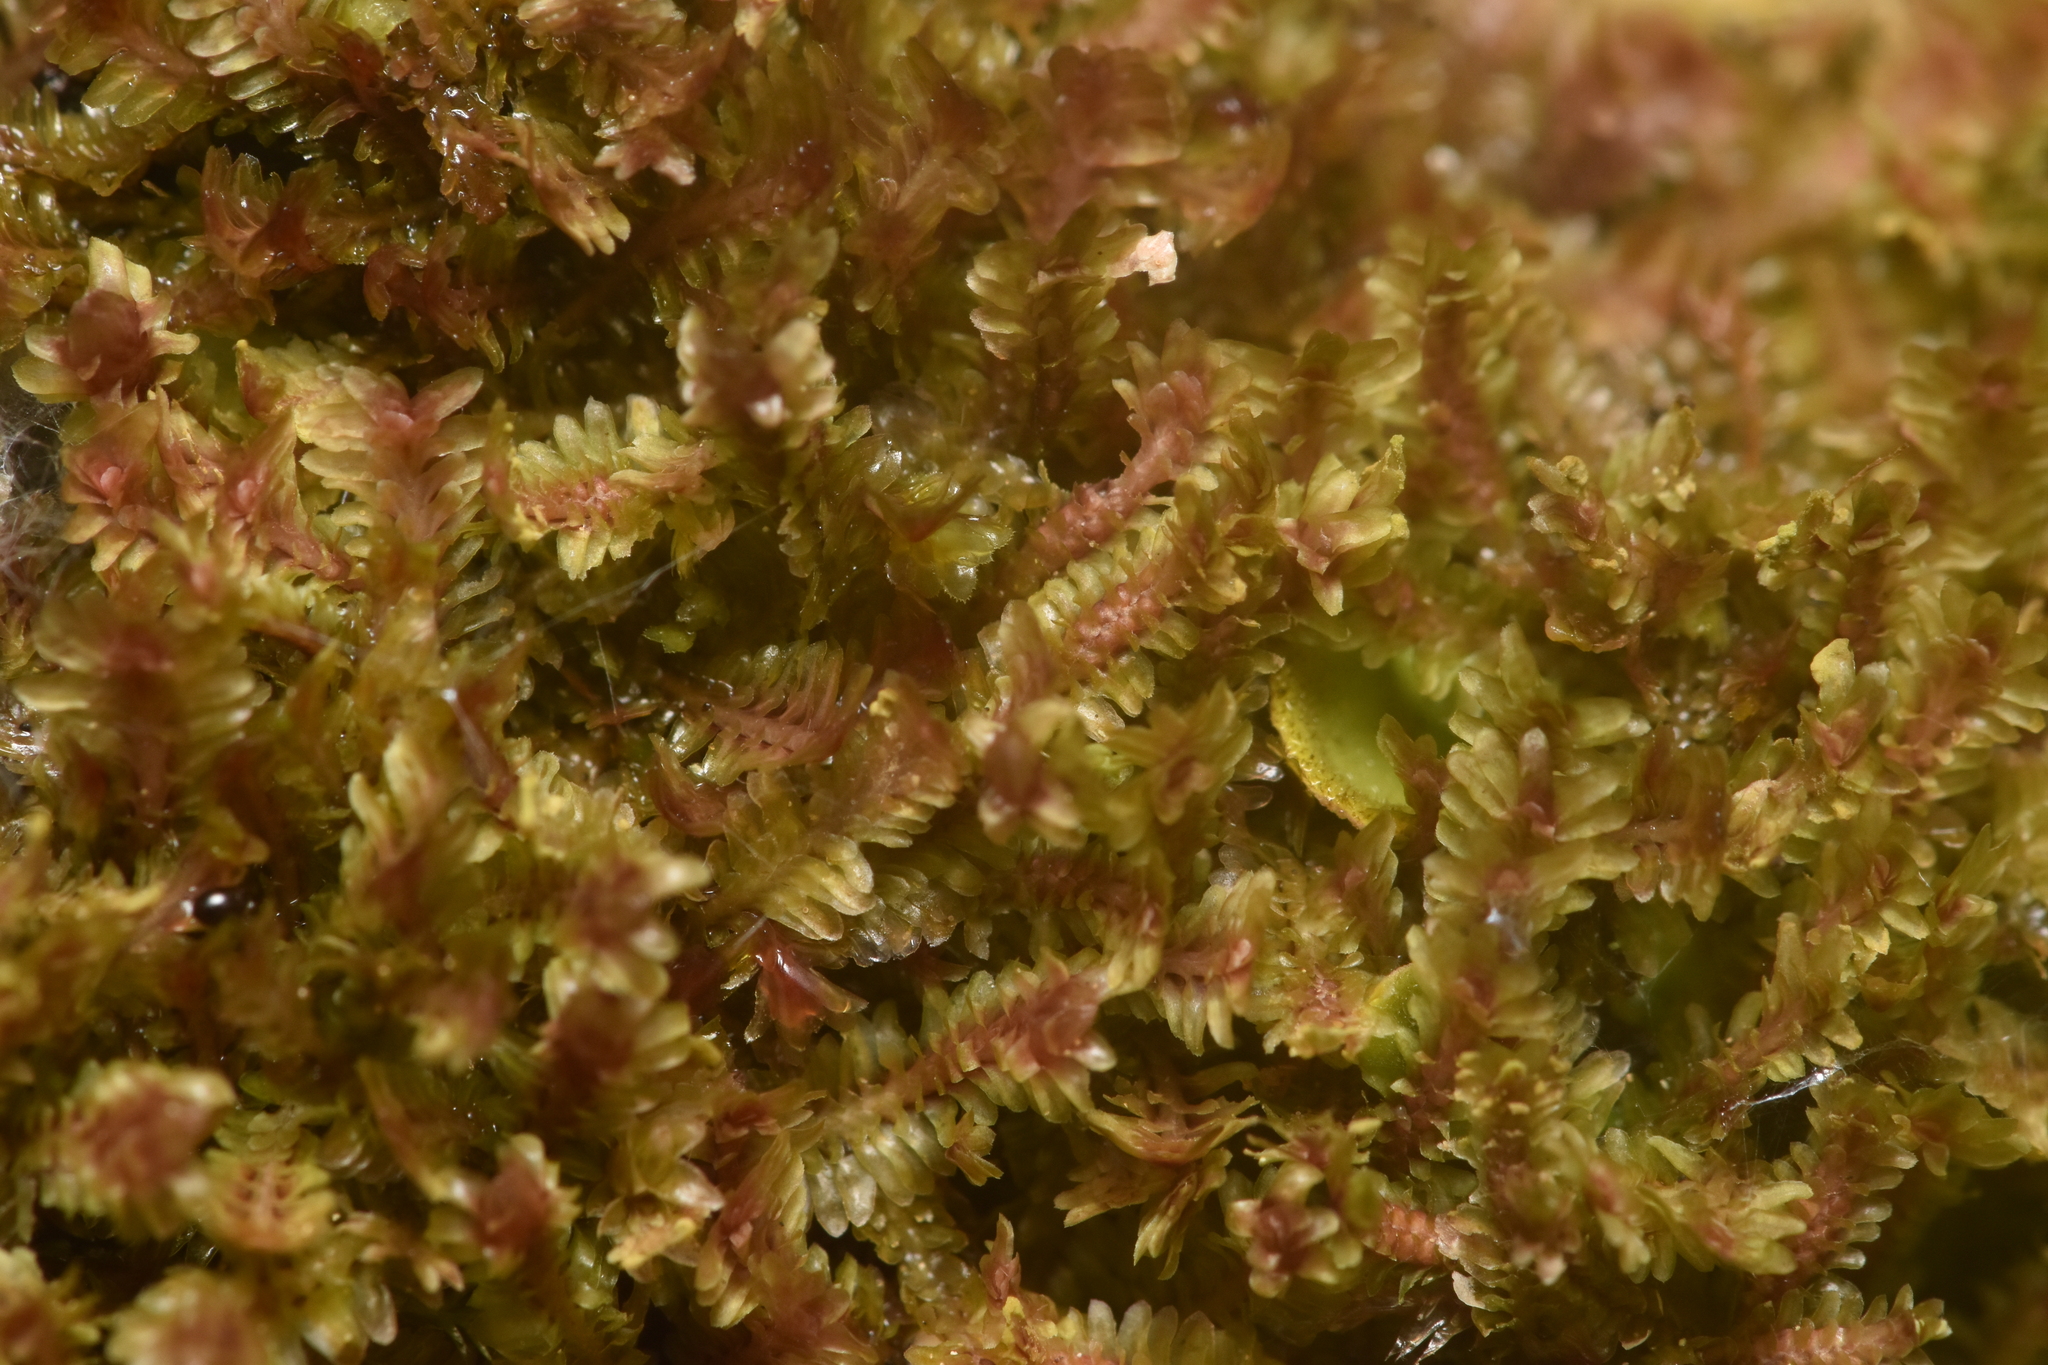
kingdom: Plantae
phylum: Marchantiophyta
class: Jungermanniopsida
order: Jungermanniales
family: Scapaniaceae
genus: Diplophyllum
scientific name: Diplophyllum albicans
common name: White earwort
